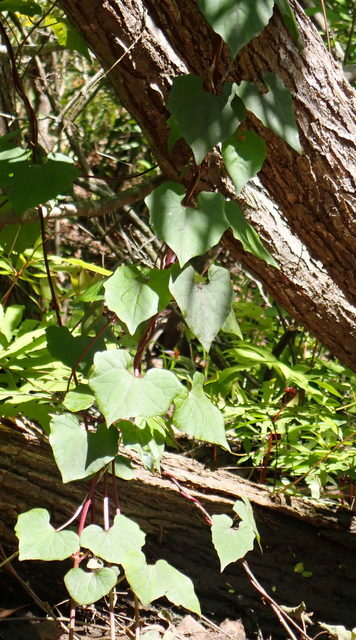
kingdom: Plantae
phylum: Tracheophyta
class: Magnoliopsida
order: Asterales
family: Asteraceae
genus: Mikania
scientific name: Mikania scandens
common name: Climbing hempvine
